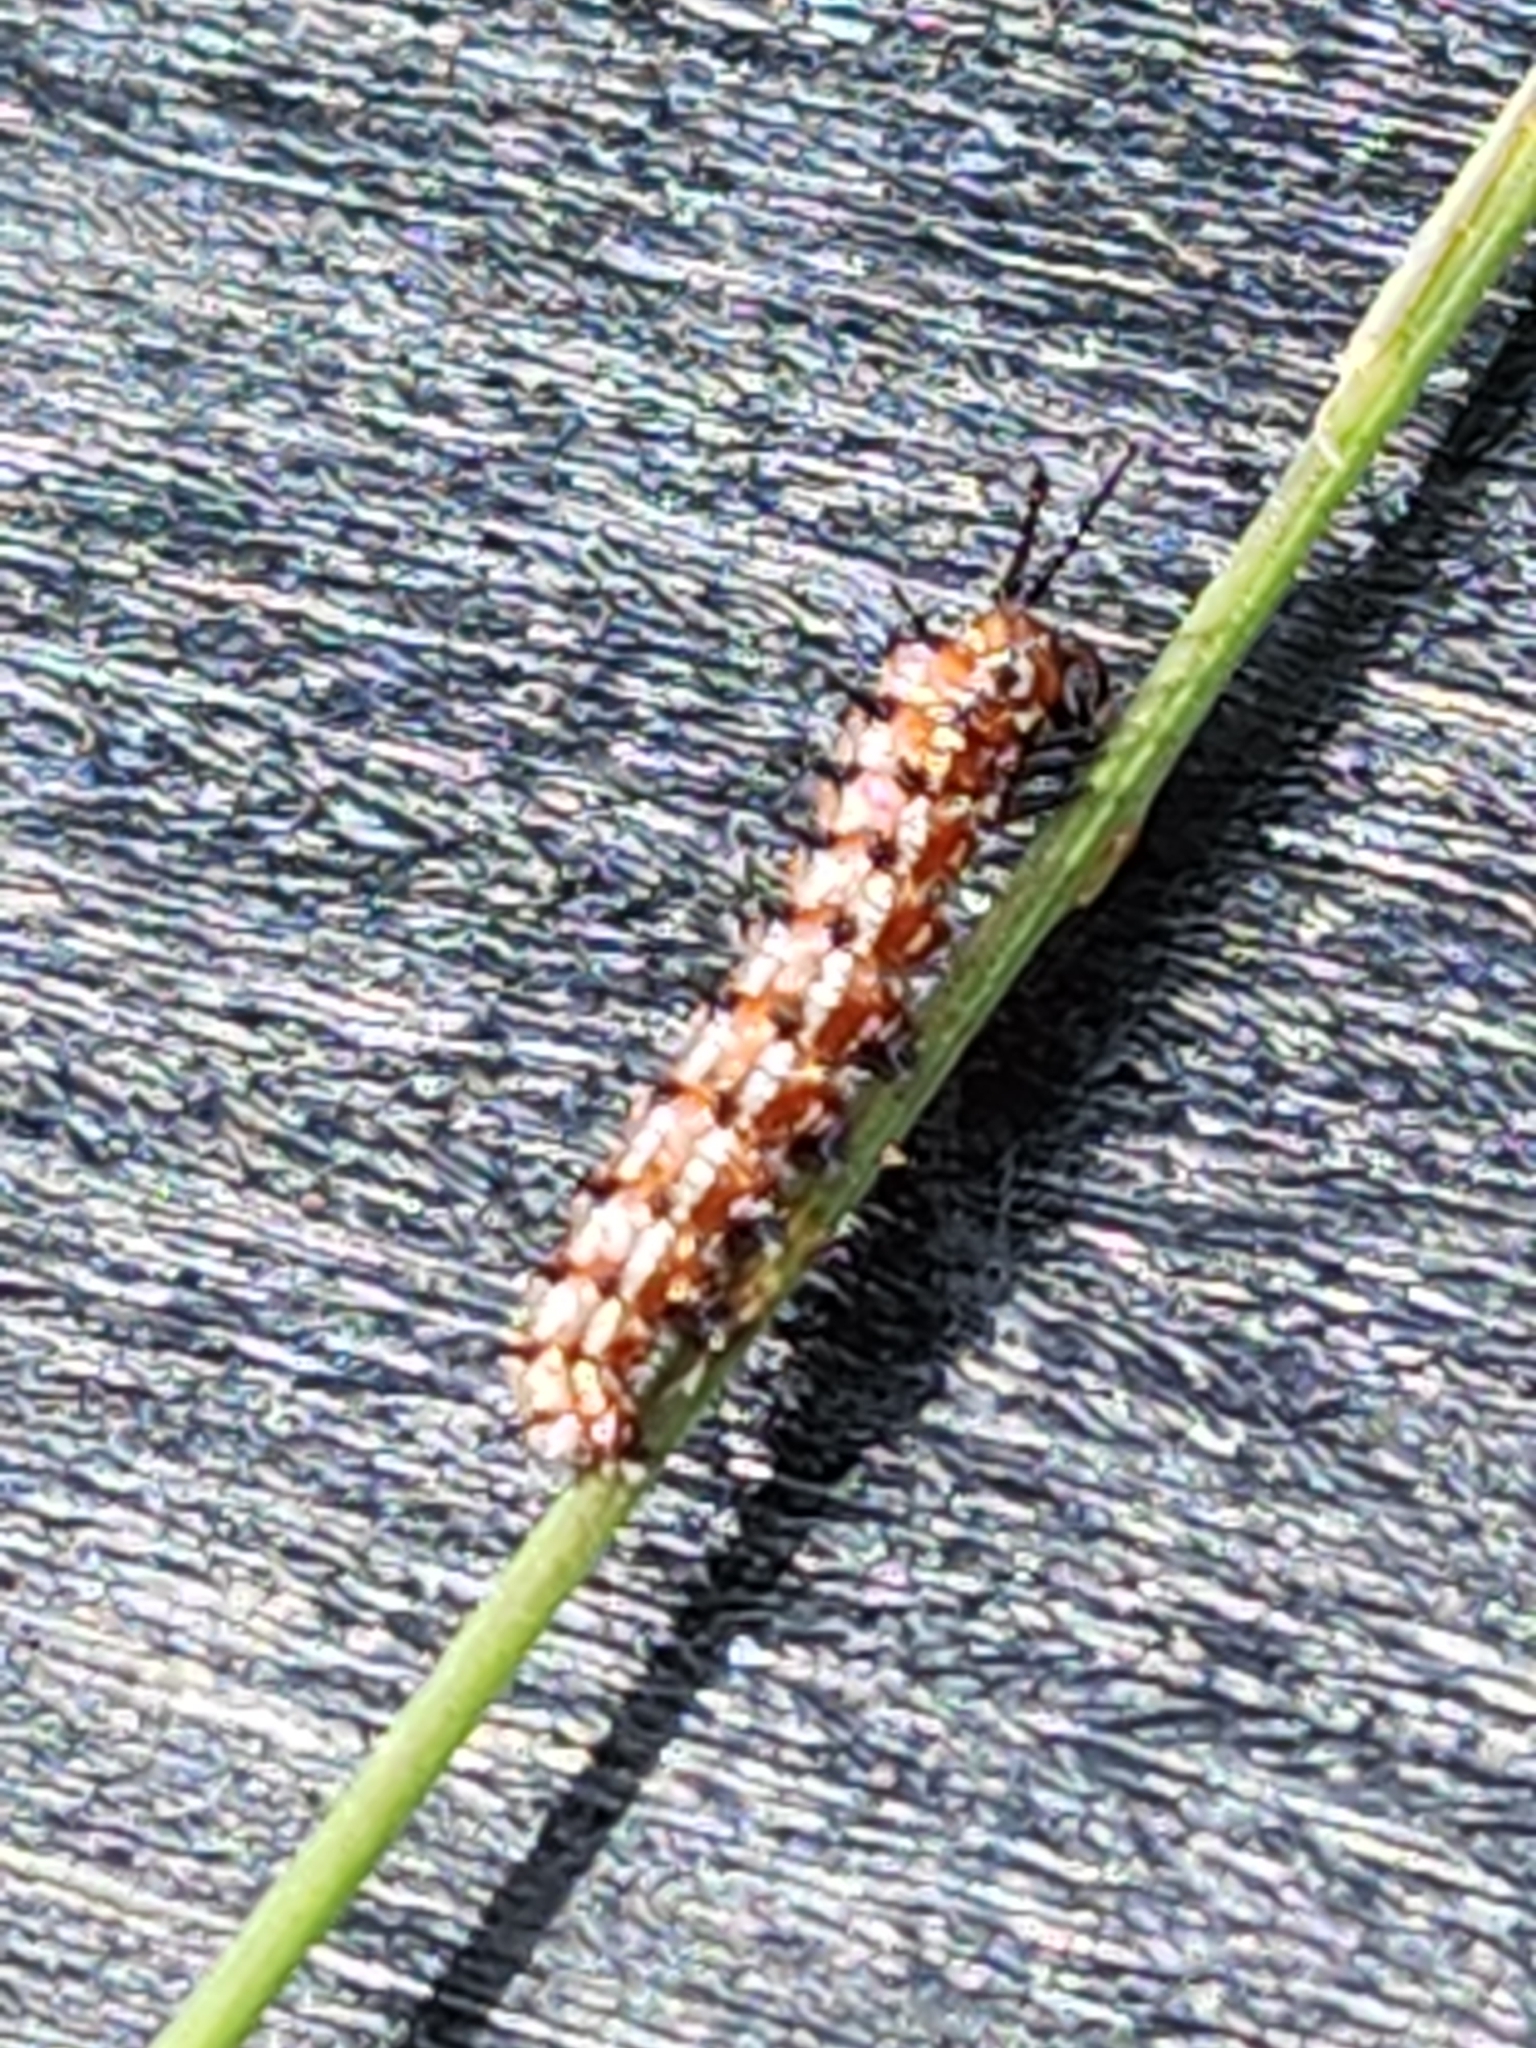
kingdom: Animalia
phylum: Arthropoda
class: Insecta
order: Lepidoptera
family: Nymphalidae
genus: Euptoieta
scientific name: Euptoieta claudia
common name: Variegated fritillary
